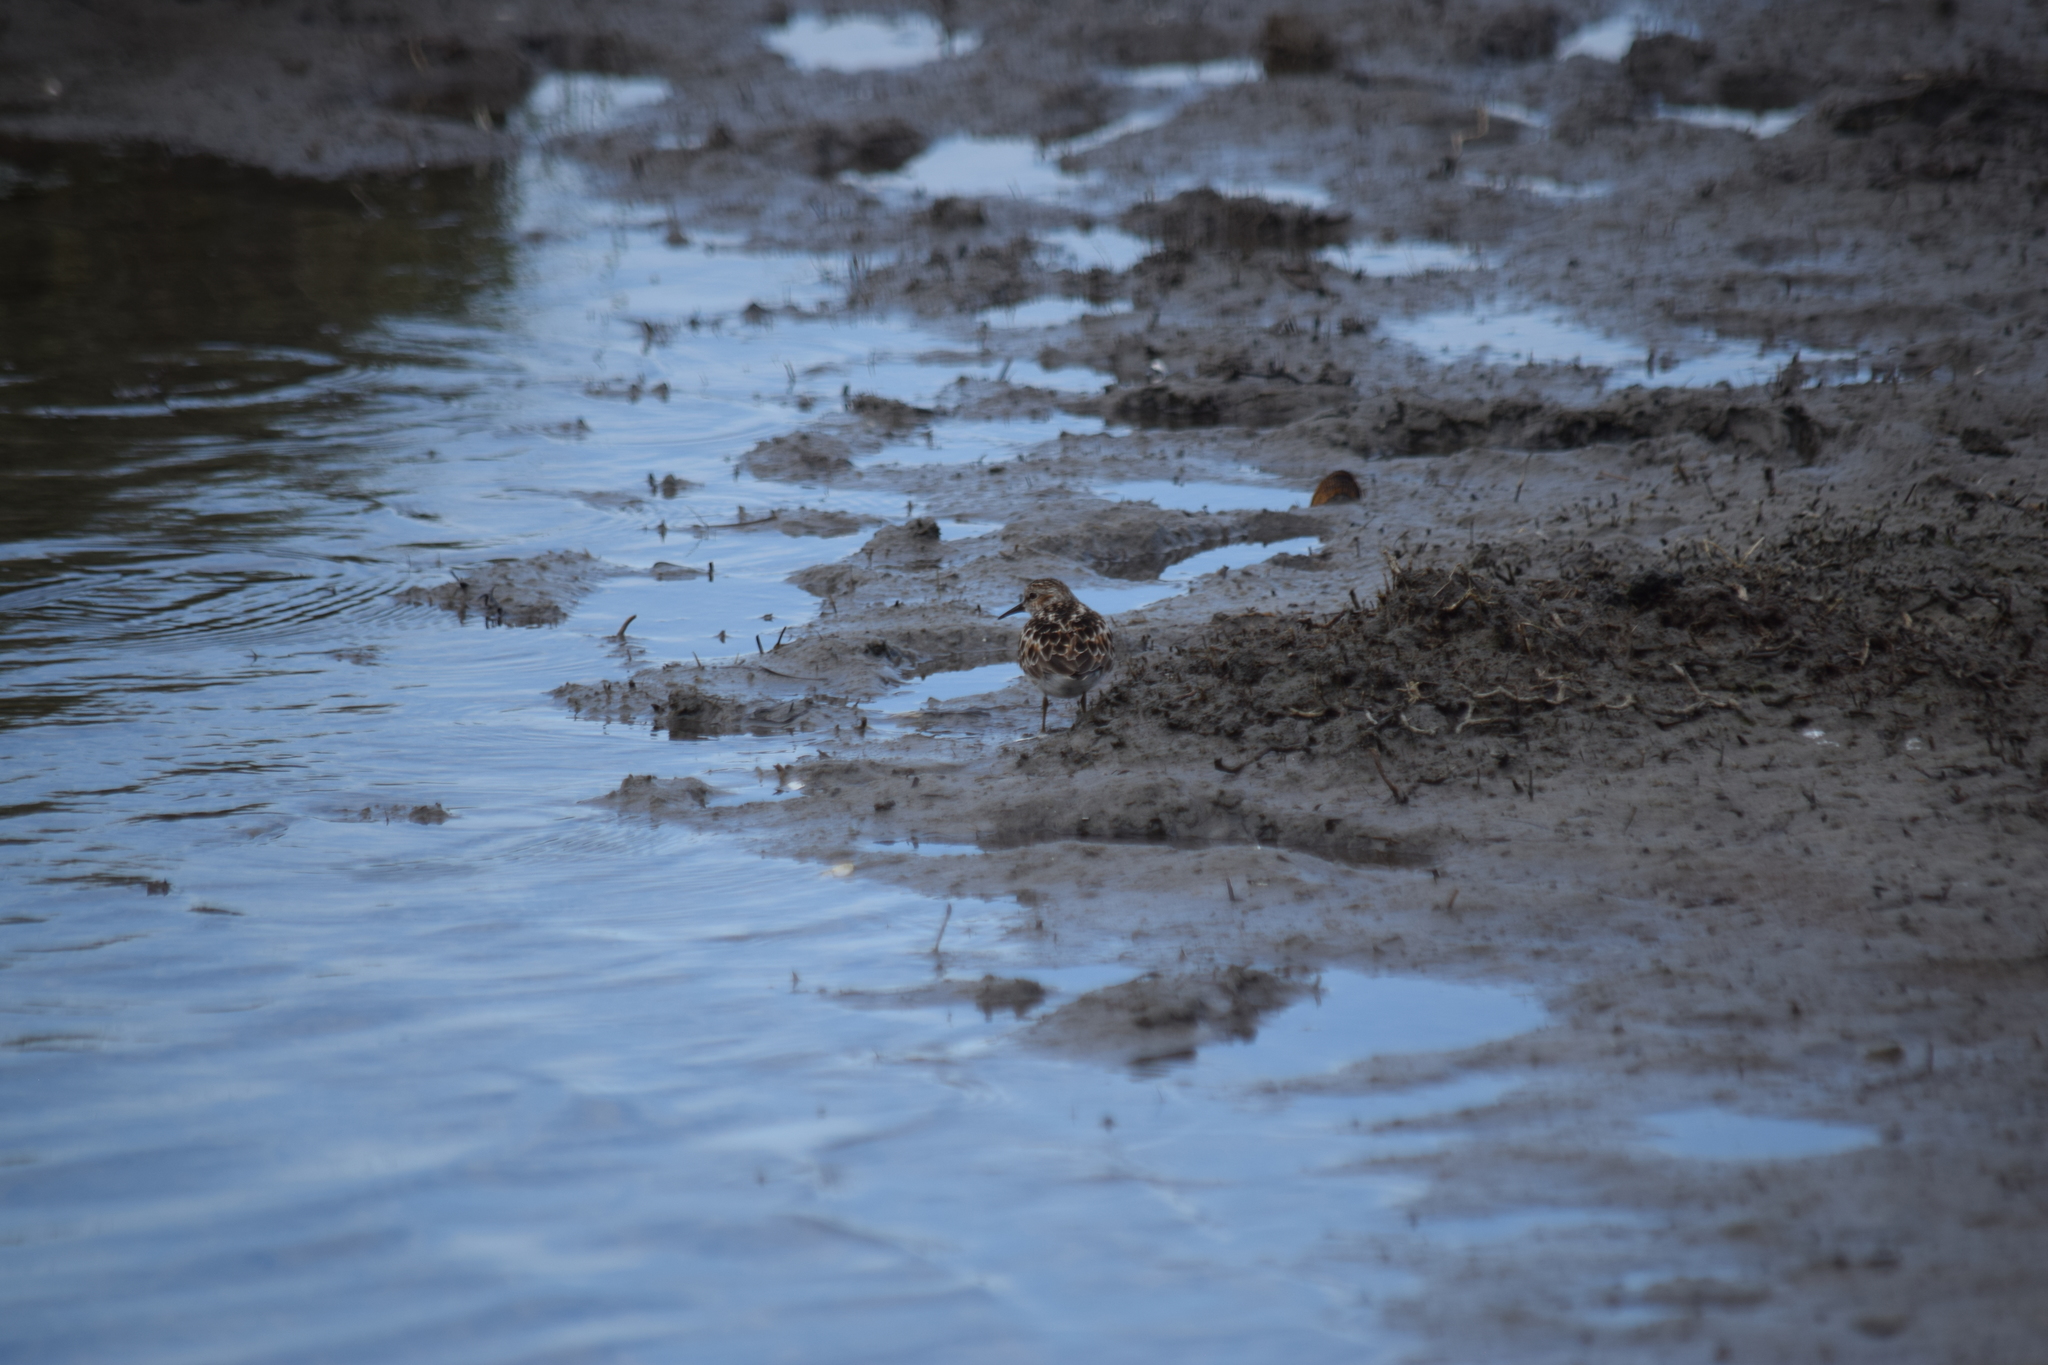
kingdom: Animalia
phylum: Chordata
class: Aves
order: Charadriiformes
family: Scolopacidae
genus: Calidris
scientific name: Calidris minutilla
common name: Least sandpiper
